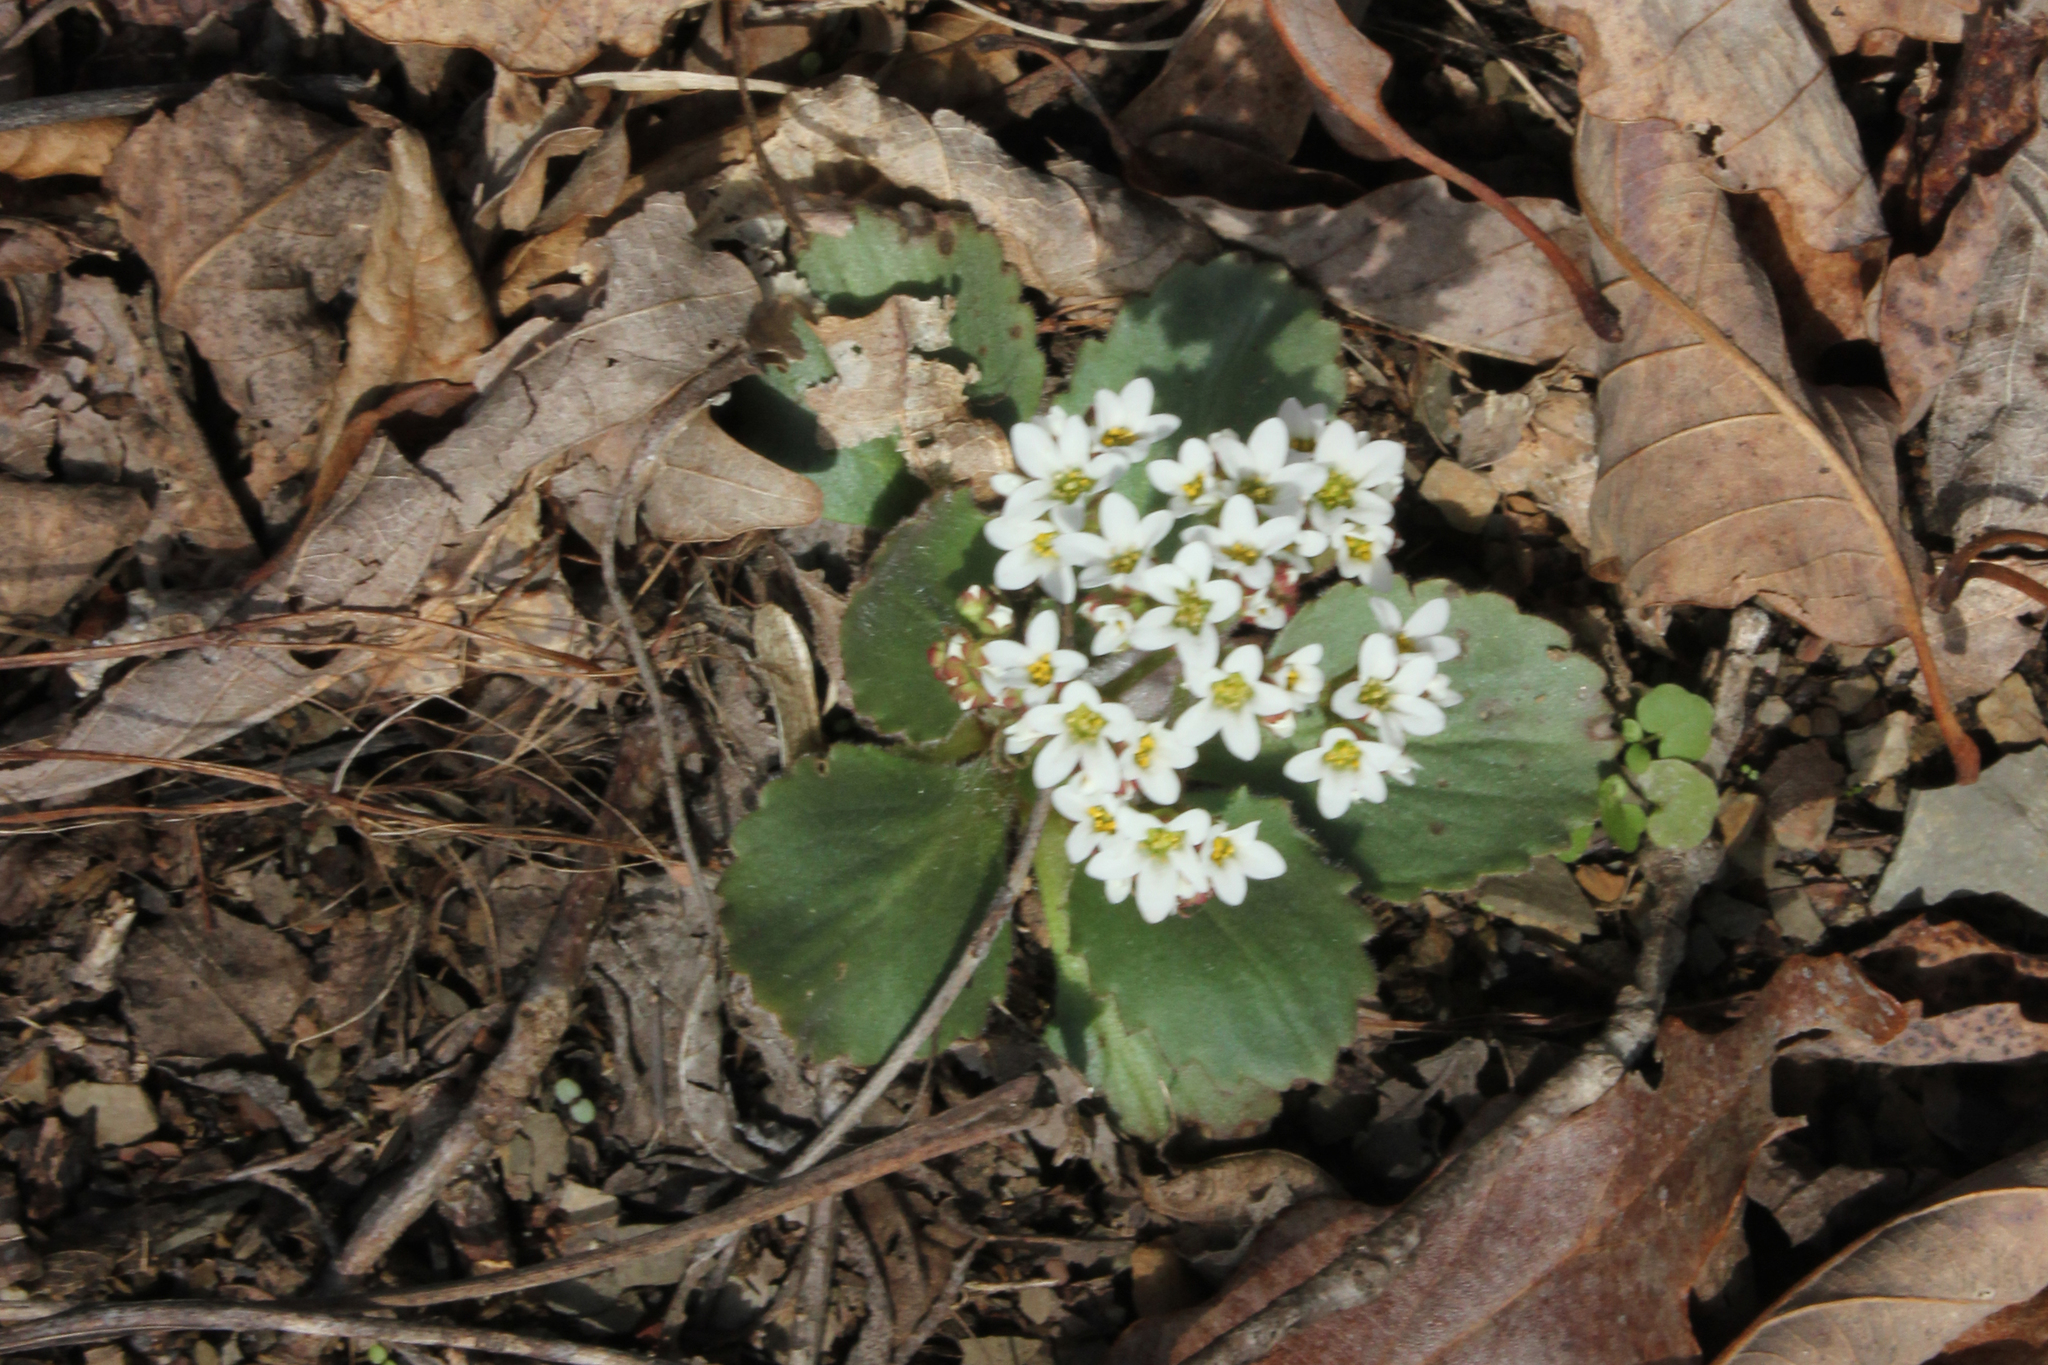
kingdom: Plantae
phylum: Tracheophyta
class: Magnoliopsida
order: Saxifragales
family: Saxifragaceae
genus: Micranthes
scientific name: Micranthes virginiensis
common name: Early saxifrage
